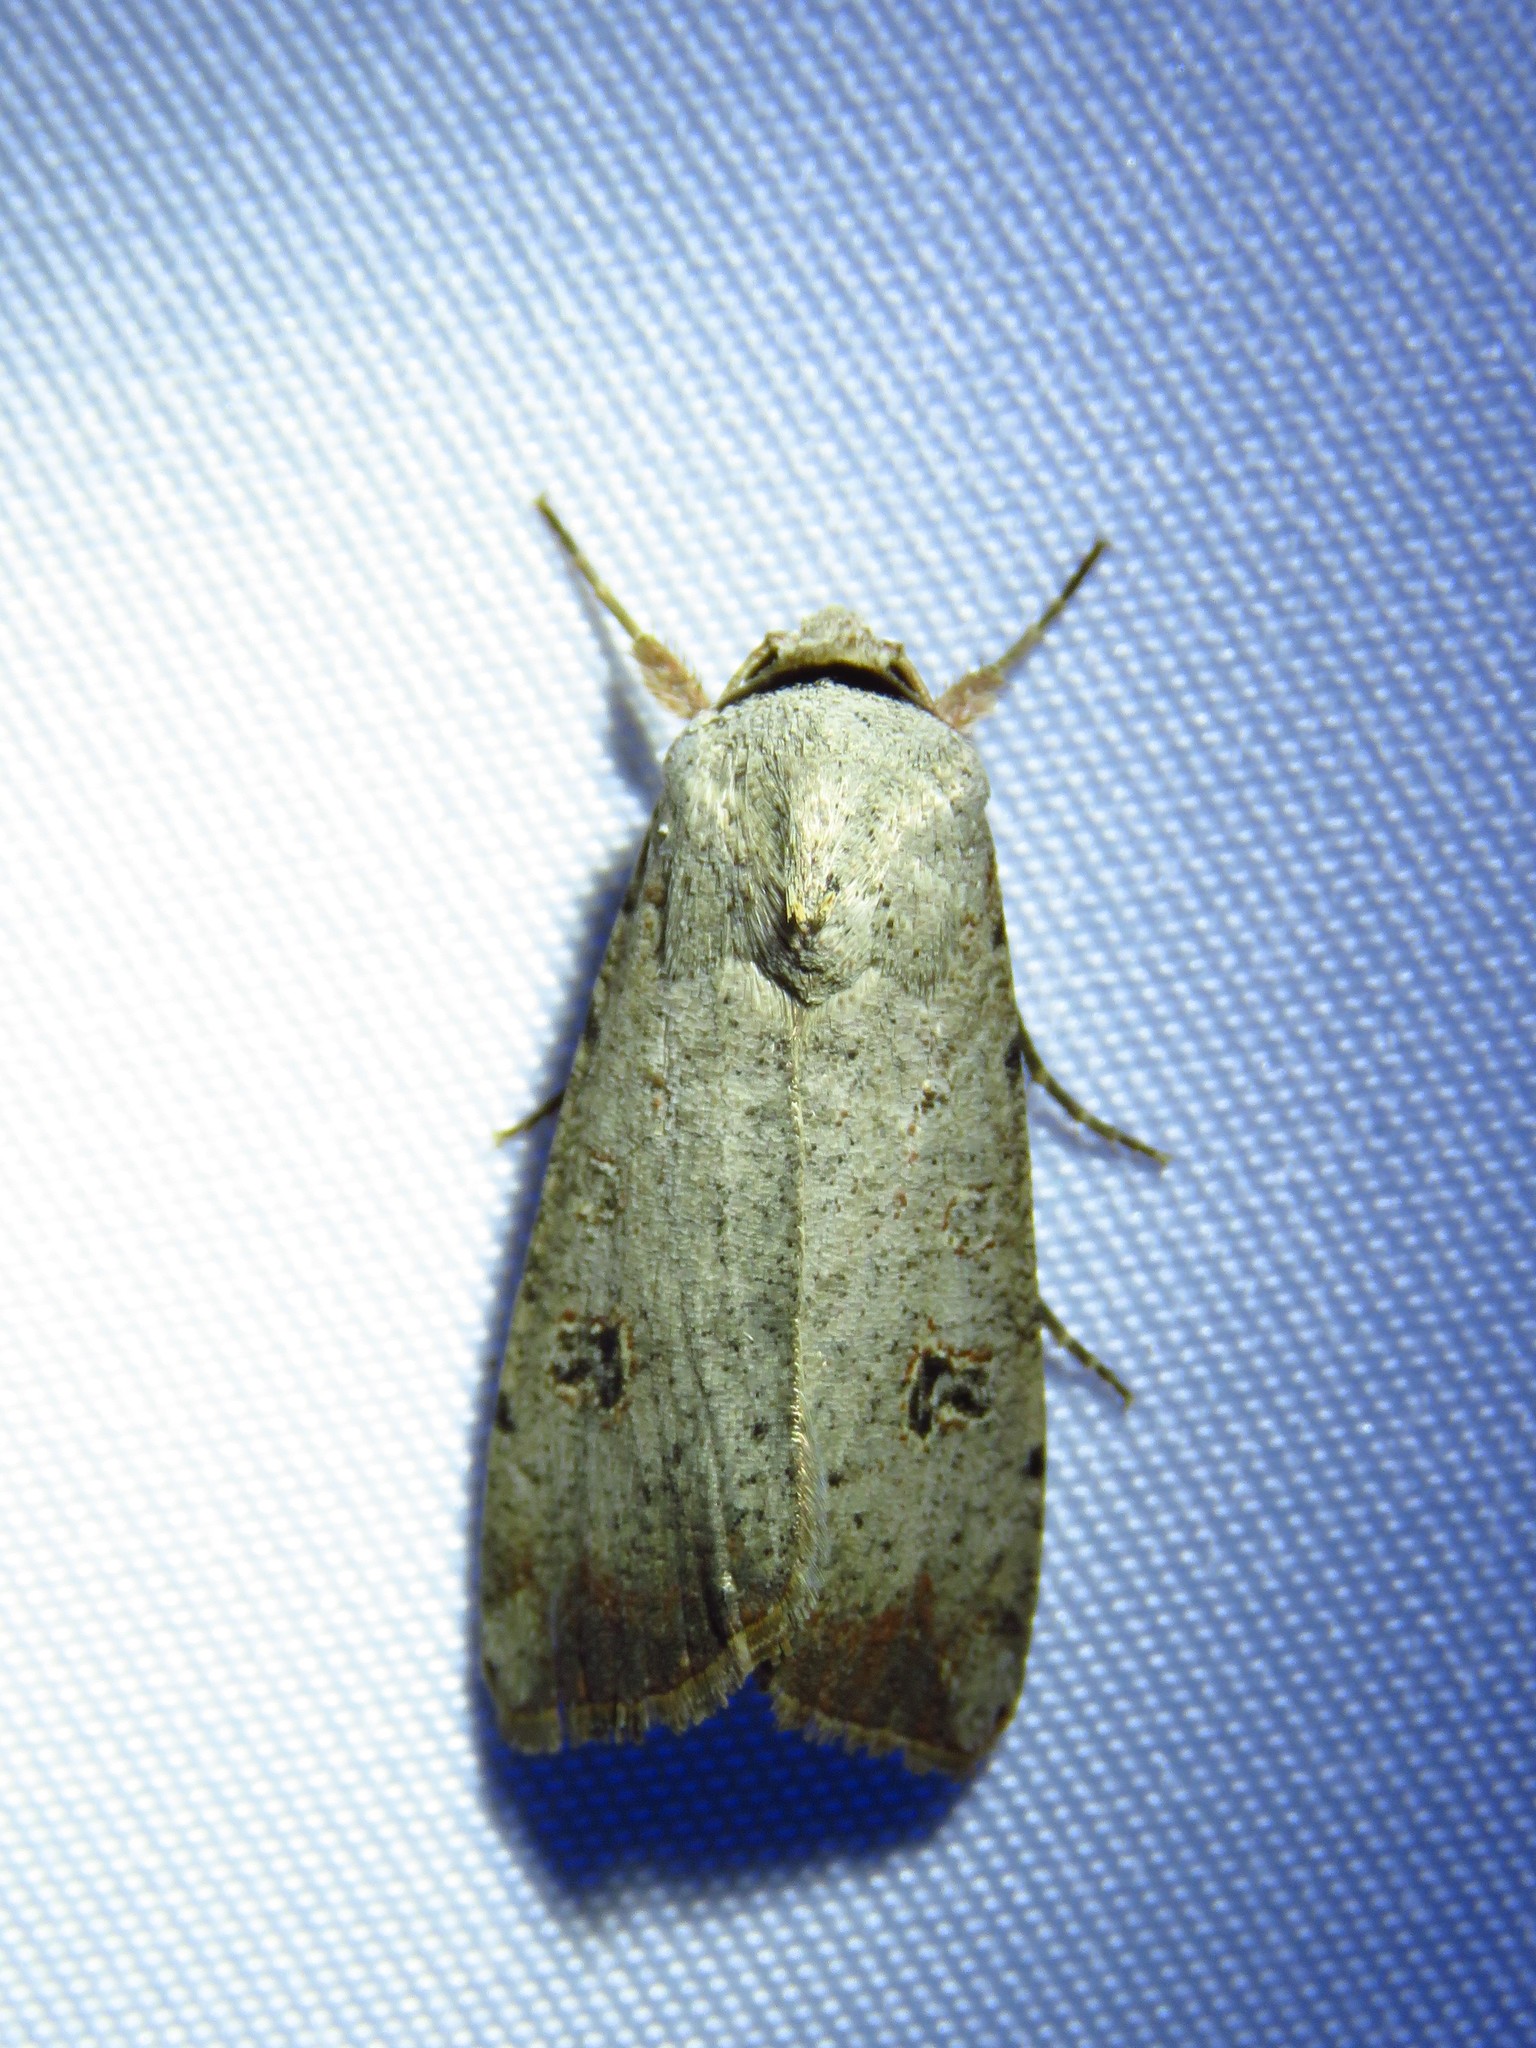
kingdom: Animalia
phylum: Arthropoda
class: Insecta
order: Lepidoptera
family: Noctuidae
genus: Anicla
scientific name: Anicla infecta
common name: Green cutworm
